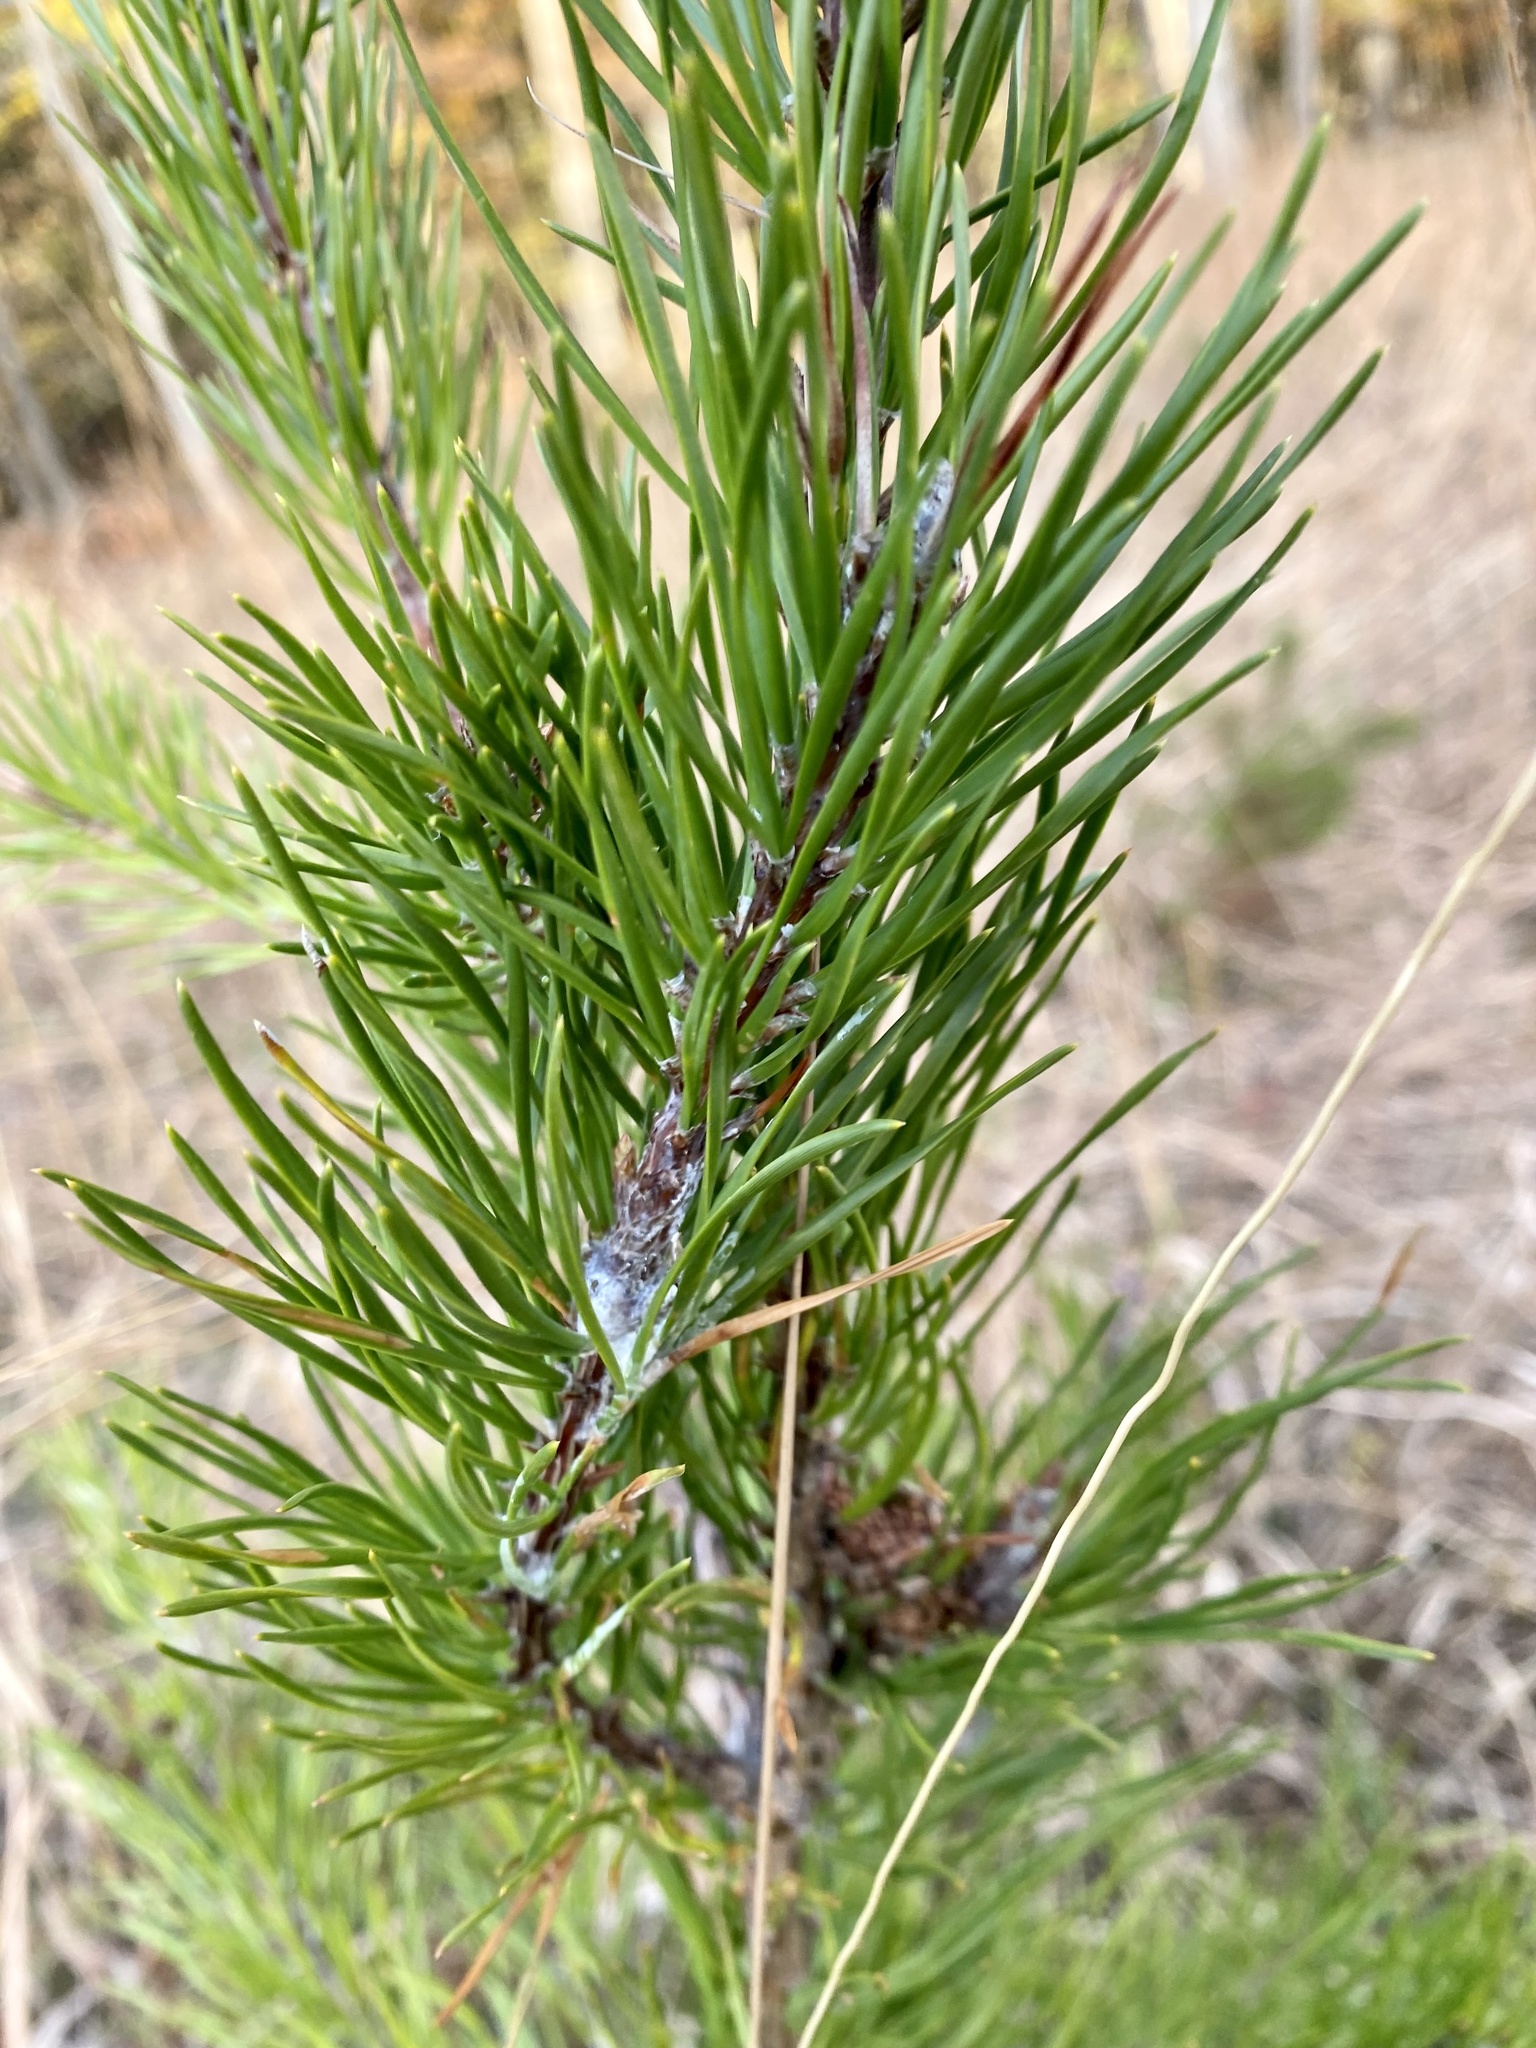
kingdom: Plantae
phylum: Tracheophyta
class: Pinopsida
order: Pinales
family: Pinaceae
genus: Pinus
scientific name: Pinus rigida
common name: Pitch pine
